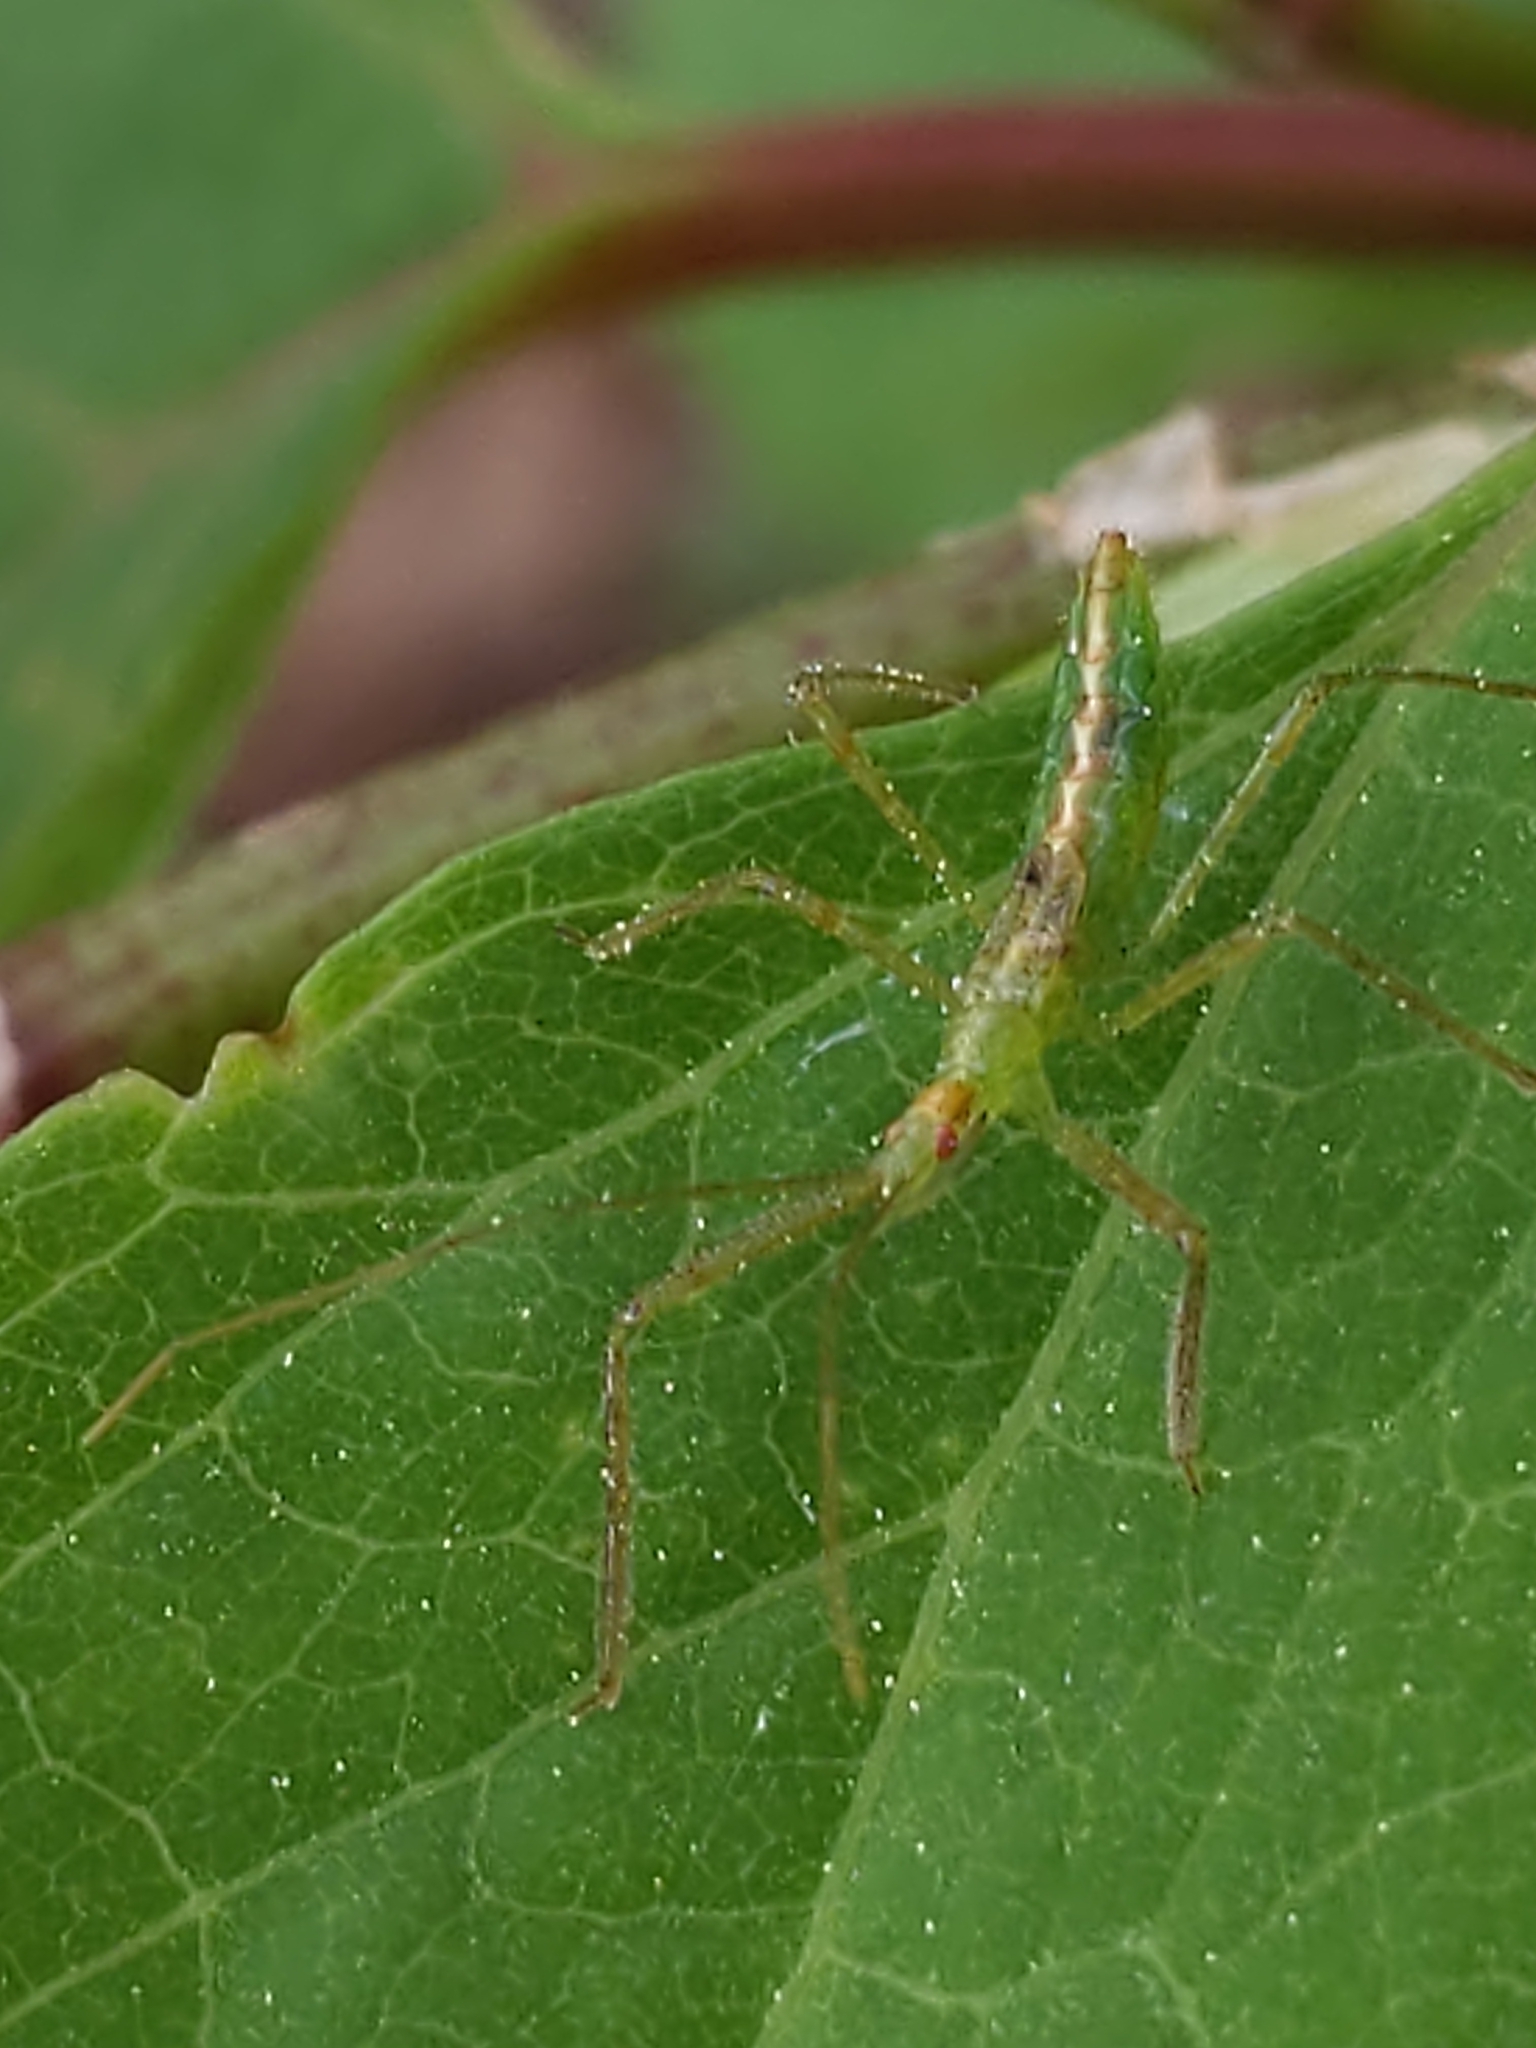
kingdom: Animalia
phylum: Arthropoda
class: Insecta
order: Hemiptera
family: Reduviidae
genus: Zelus
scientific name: Zelus luridus
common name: Pale green assassin bug
